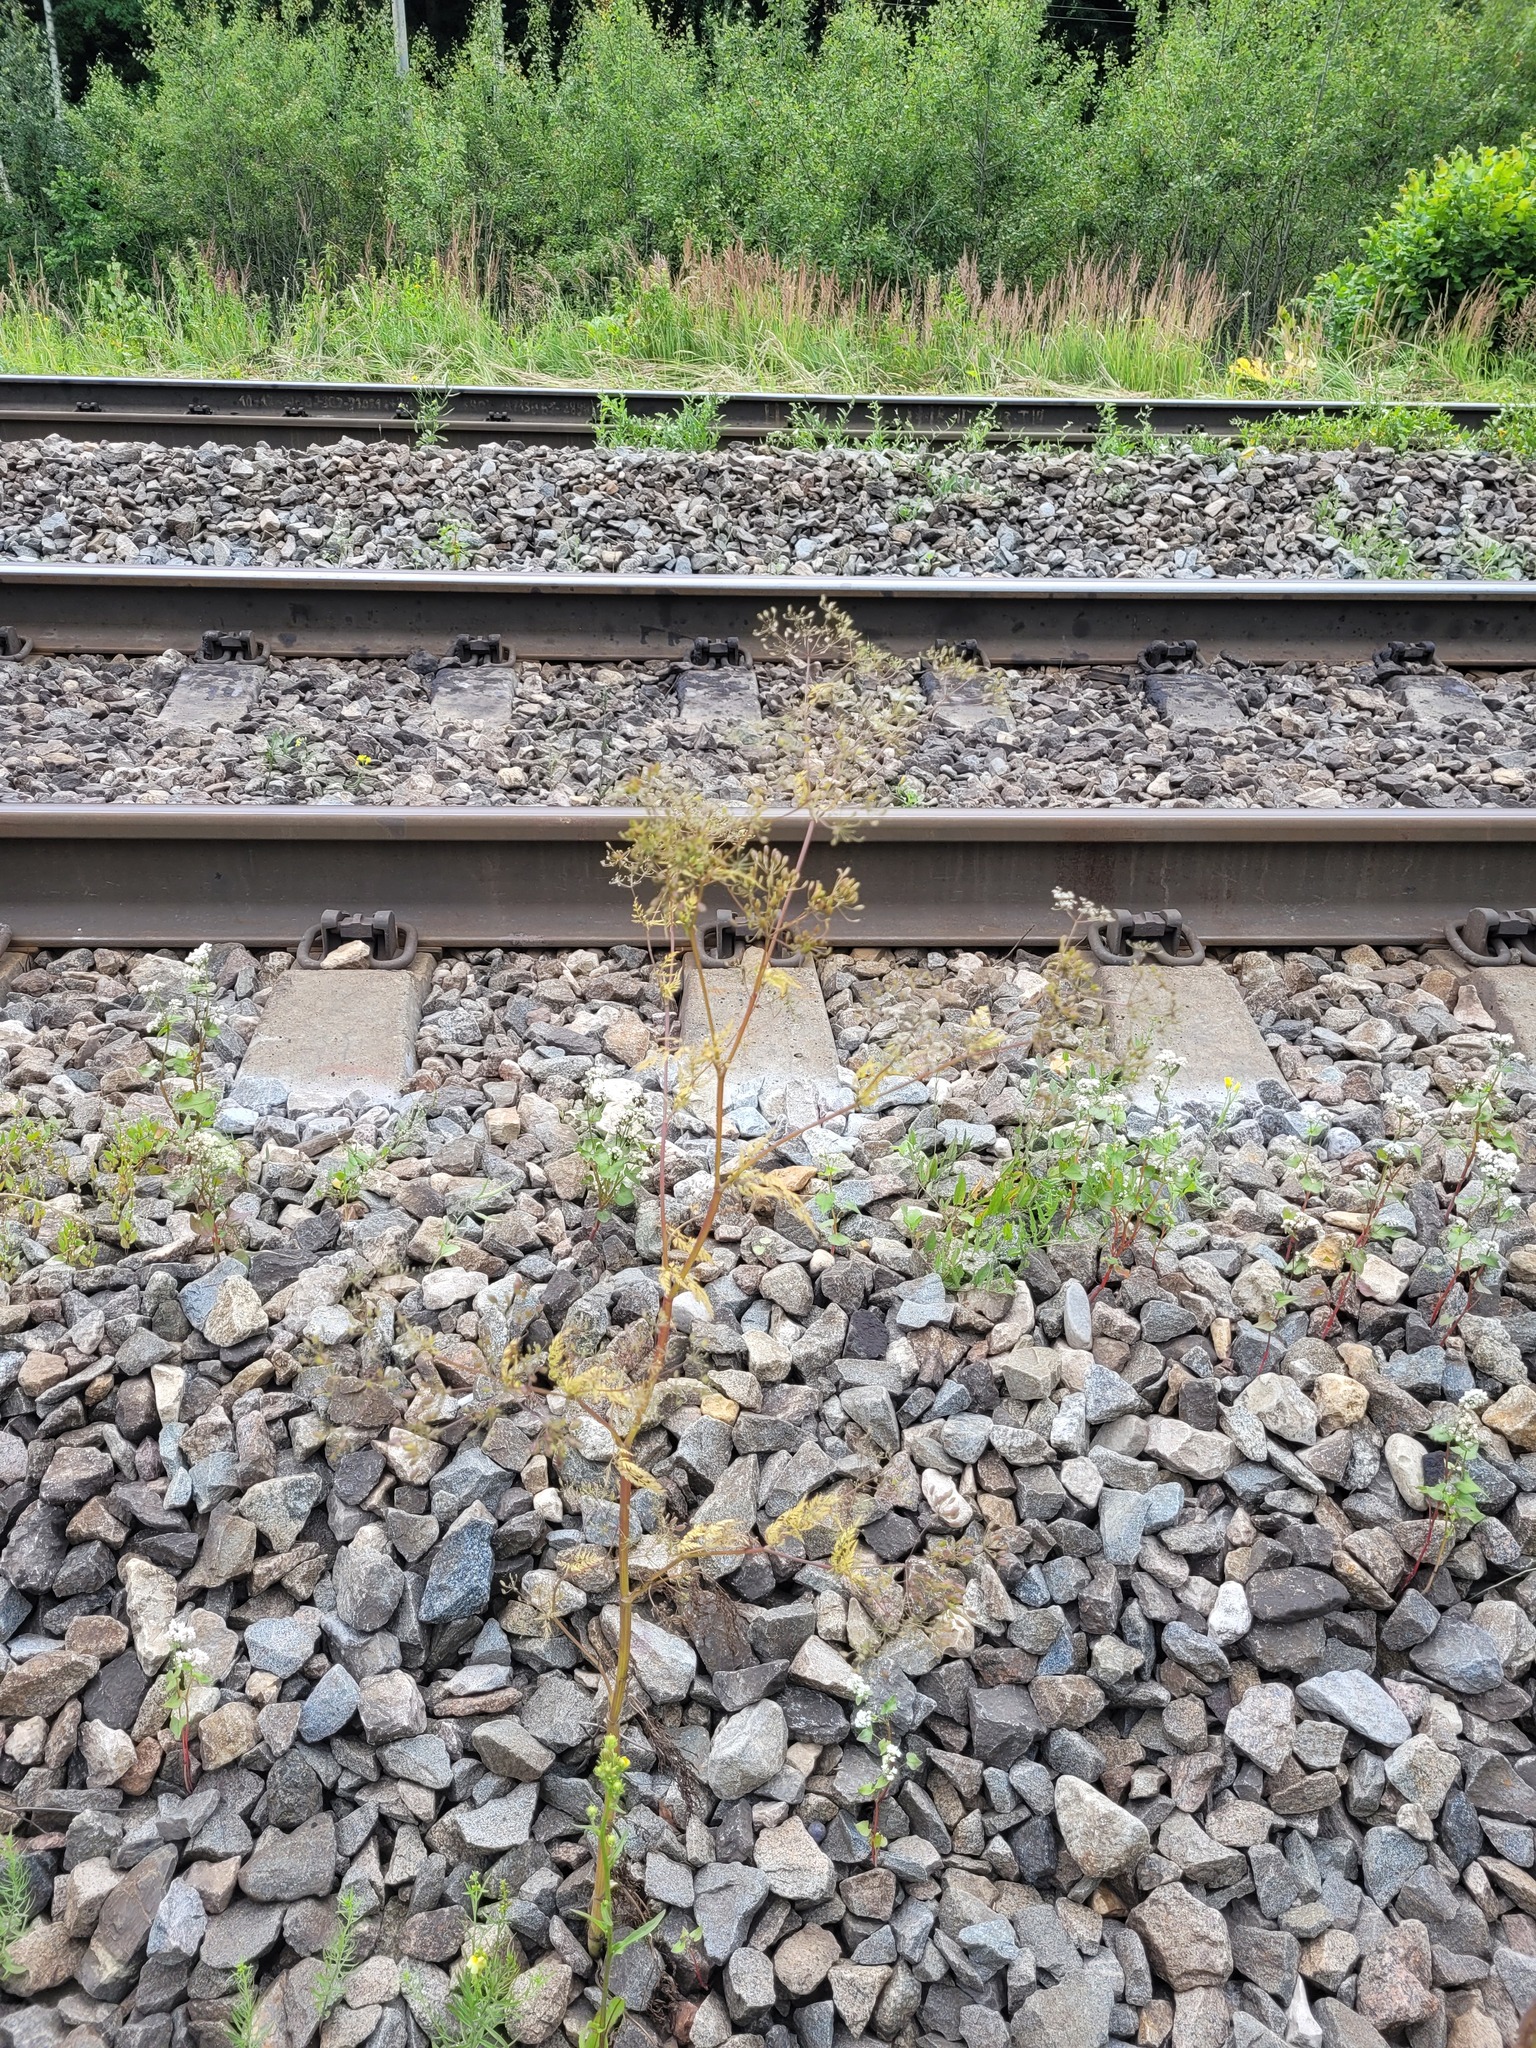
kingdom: Plantae
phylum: Tracheophyta
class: Magnoliopsida
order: Apiales
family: Apiaceae
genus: Sphallerocarpus
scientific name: Sphallerocarpus gracilis
